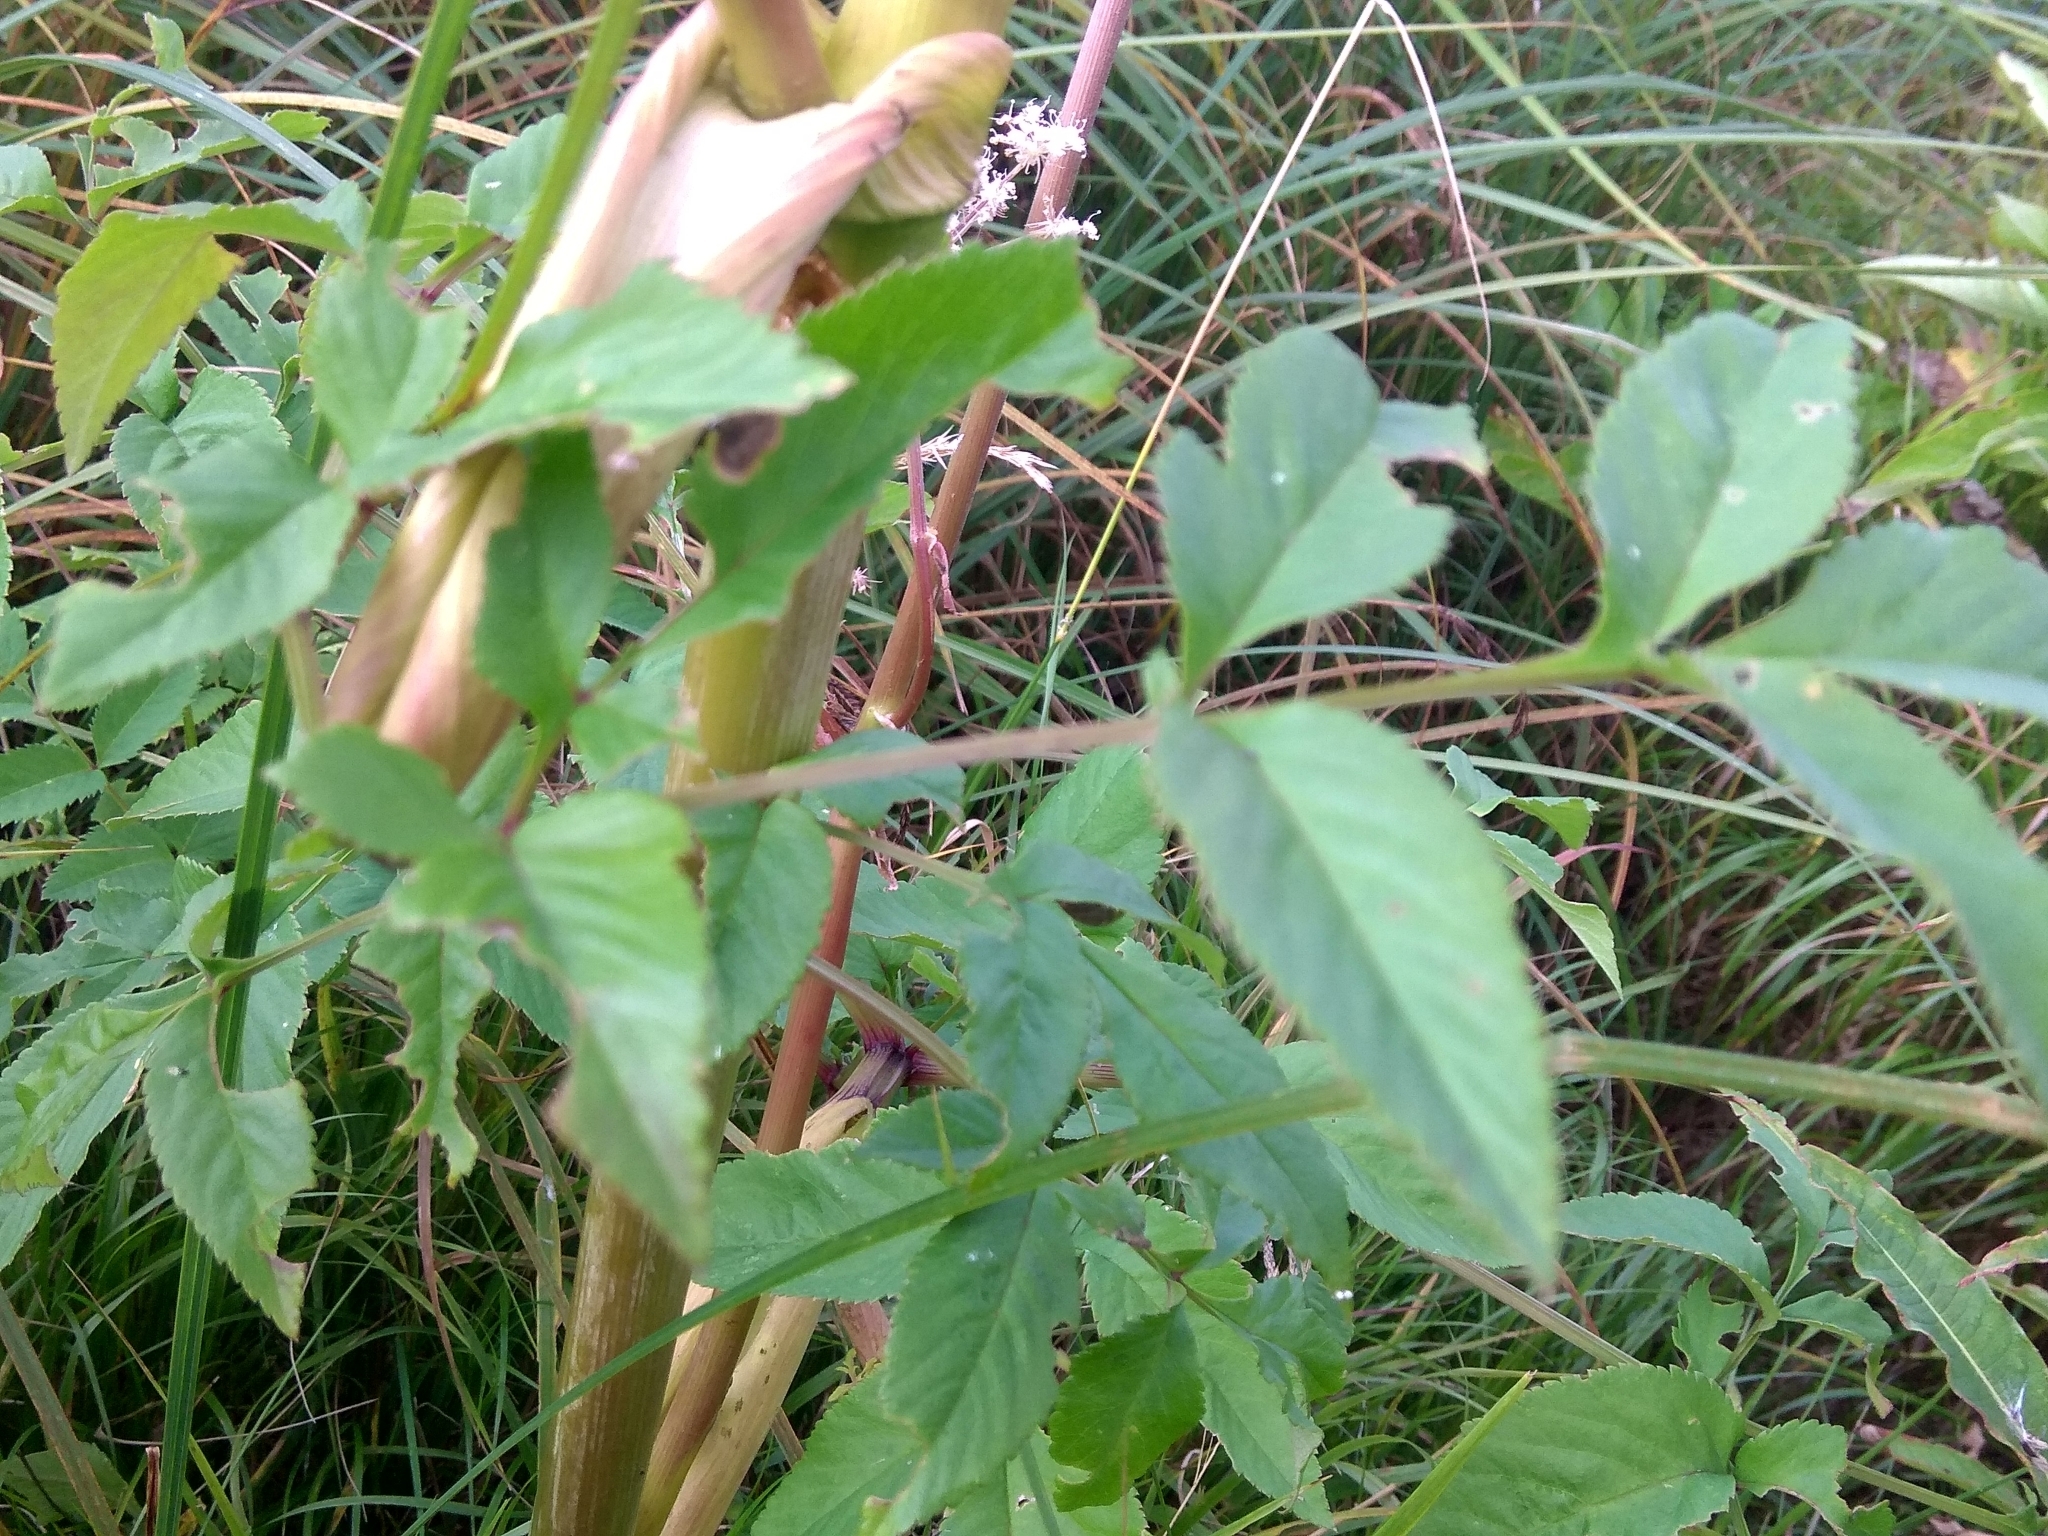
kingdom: Plantae
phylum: Tracheophyta
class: Magnoliopsida
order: Apiales
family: Apiaceae
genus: Angelica
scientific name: Angelica sylvestris
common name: Wild angelica
